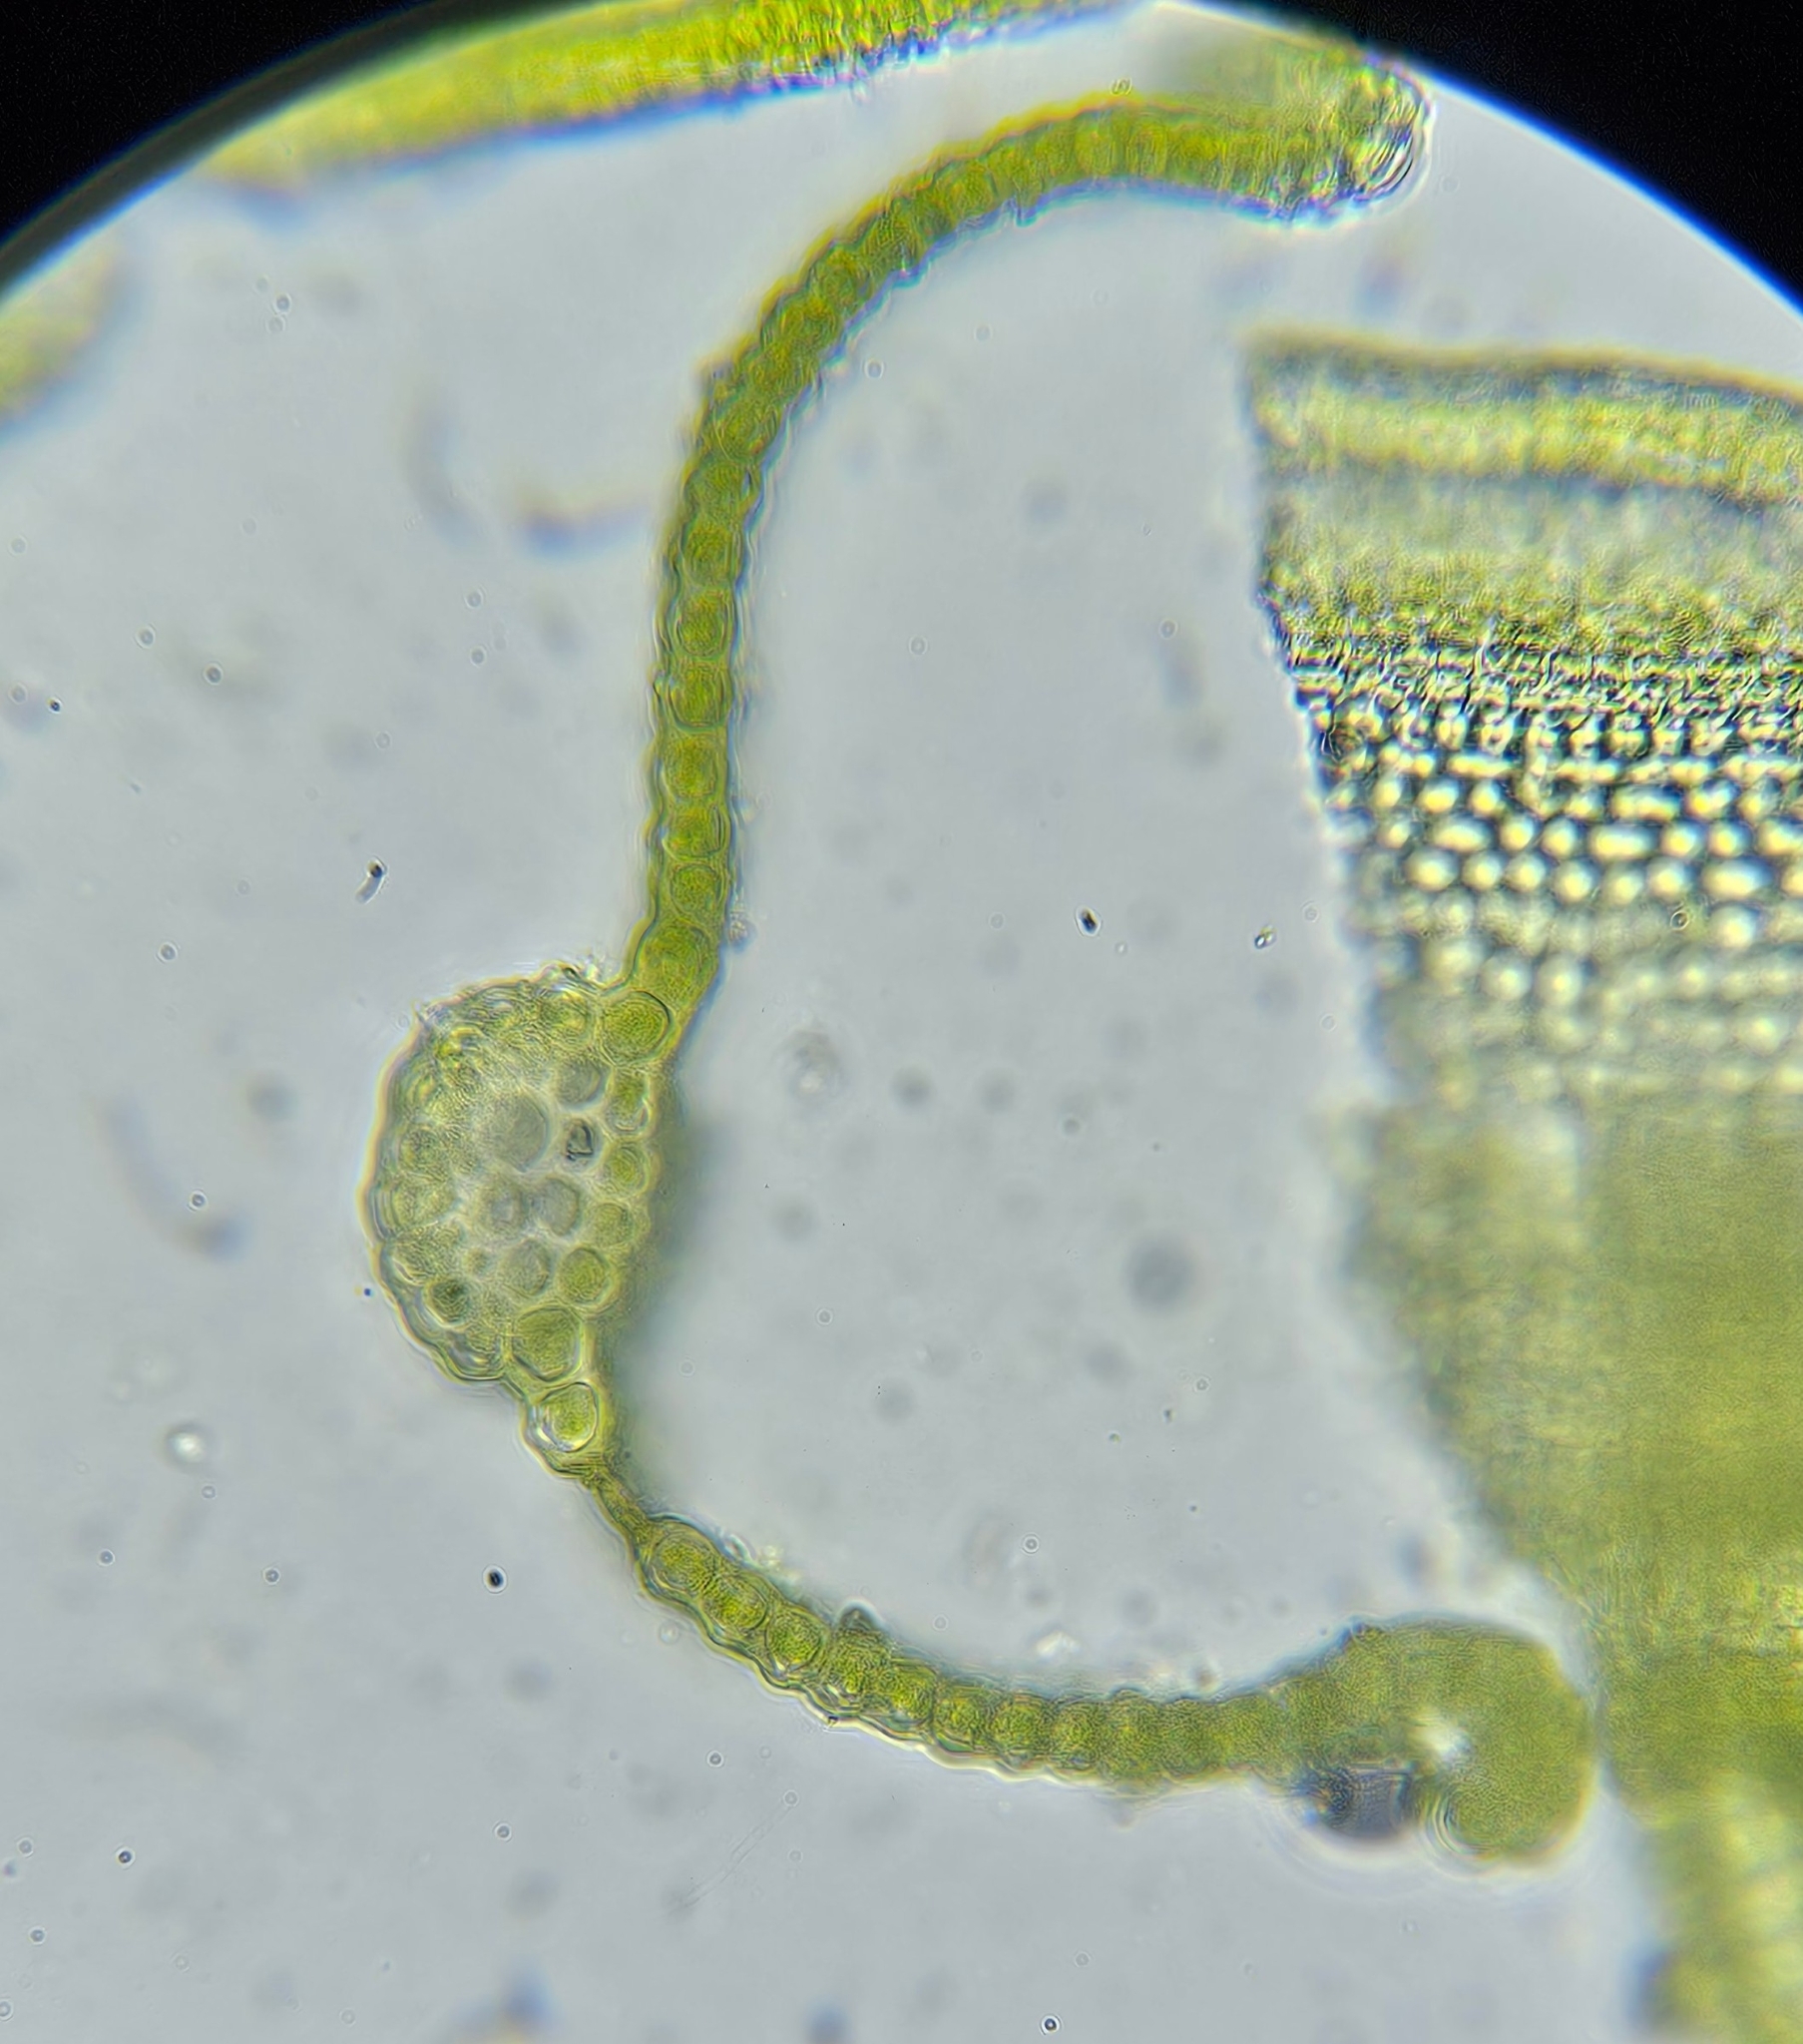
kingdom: Plantae
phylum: Bryophyta
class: Bryopsida
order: Pottiales
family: Pottiaceae
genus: Vinealobryum
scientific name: Vinealobryum nicholsonii
